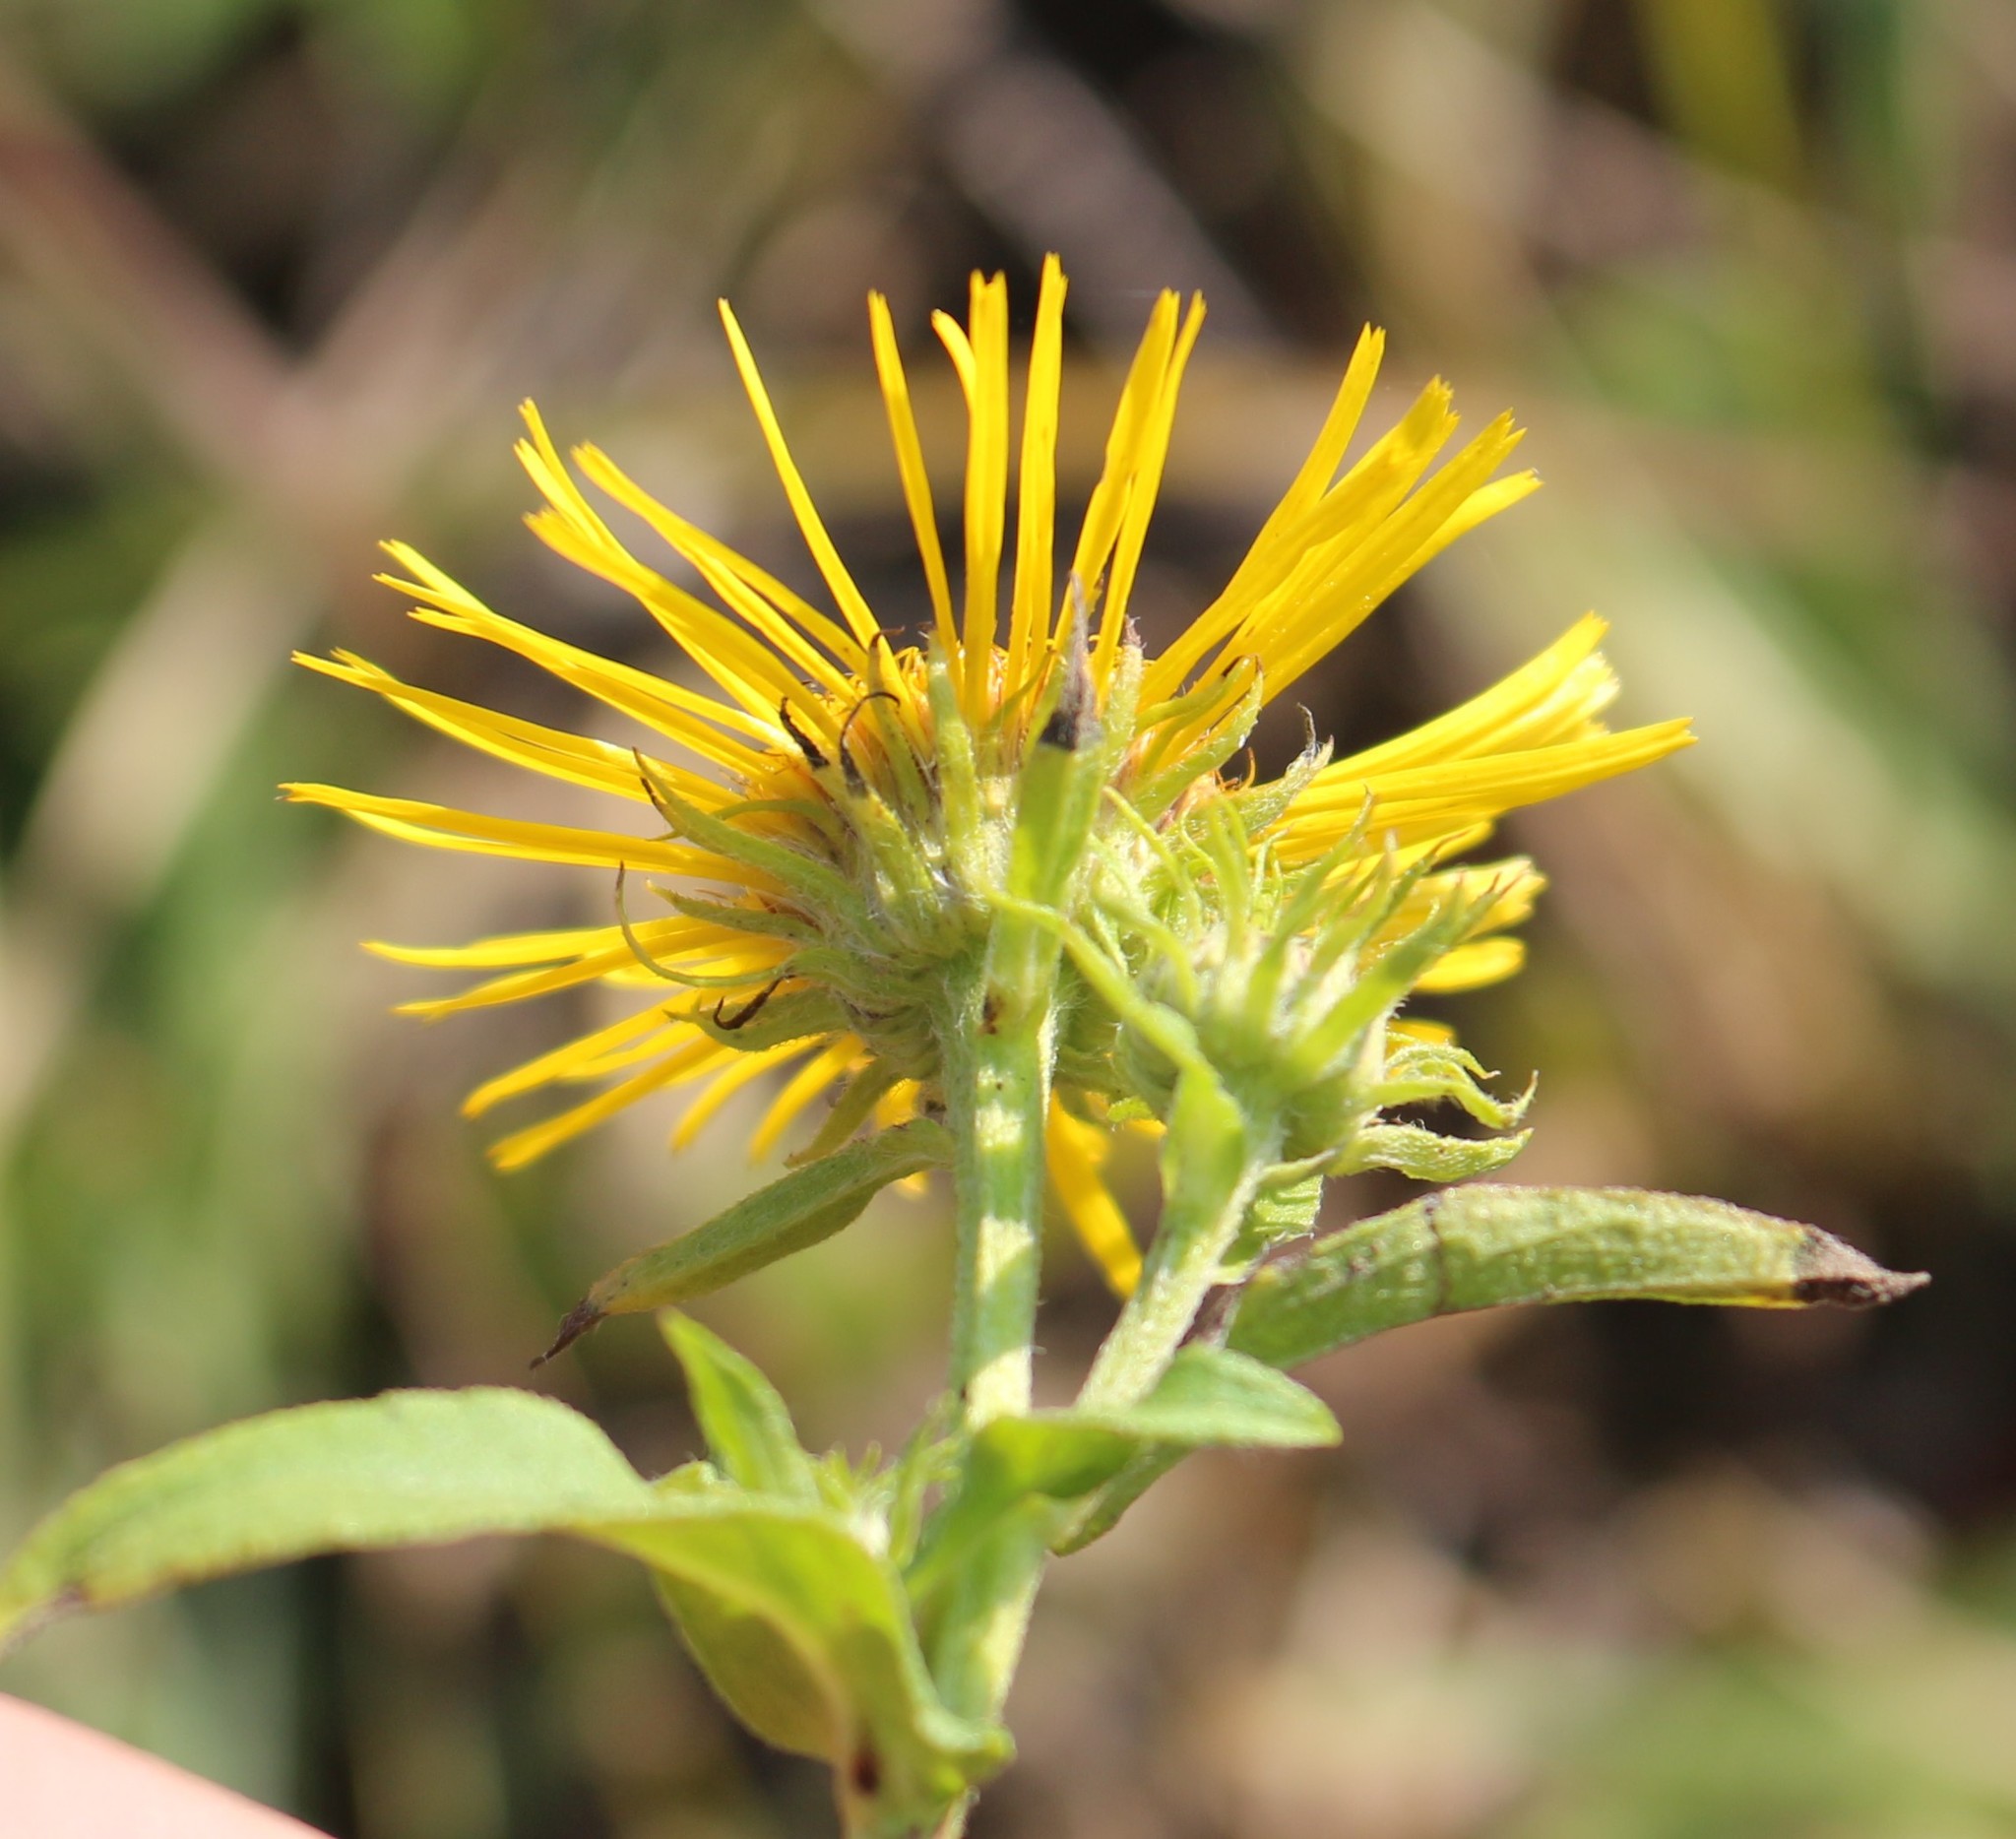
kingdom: Plantae
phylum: Tracheophyta
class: Magnoliopsida
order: Asterales
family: Asteraceae
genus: Pentanema
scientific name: Pentanema britannicum
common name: British elecampane
